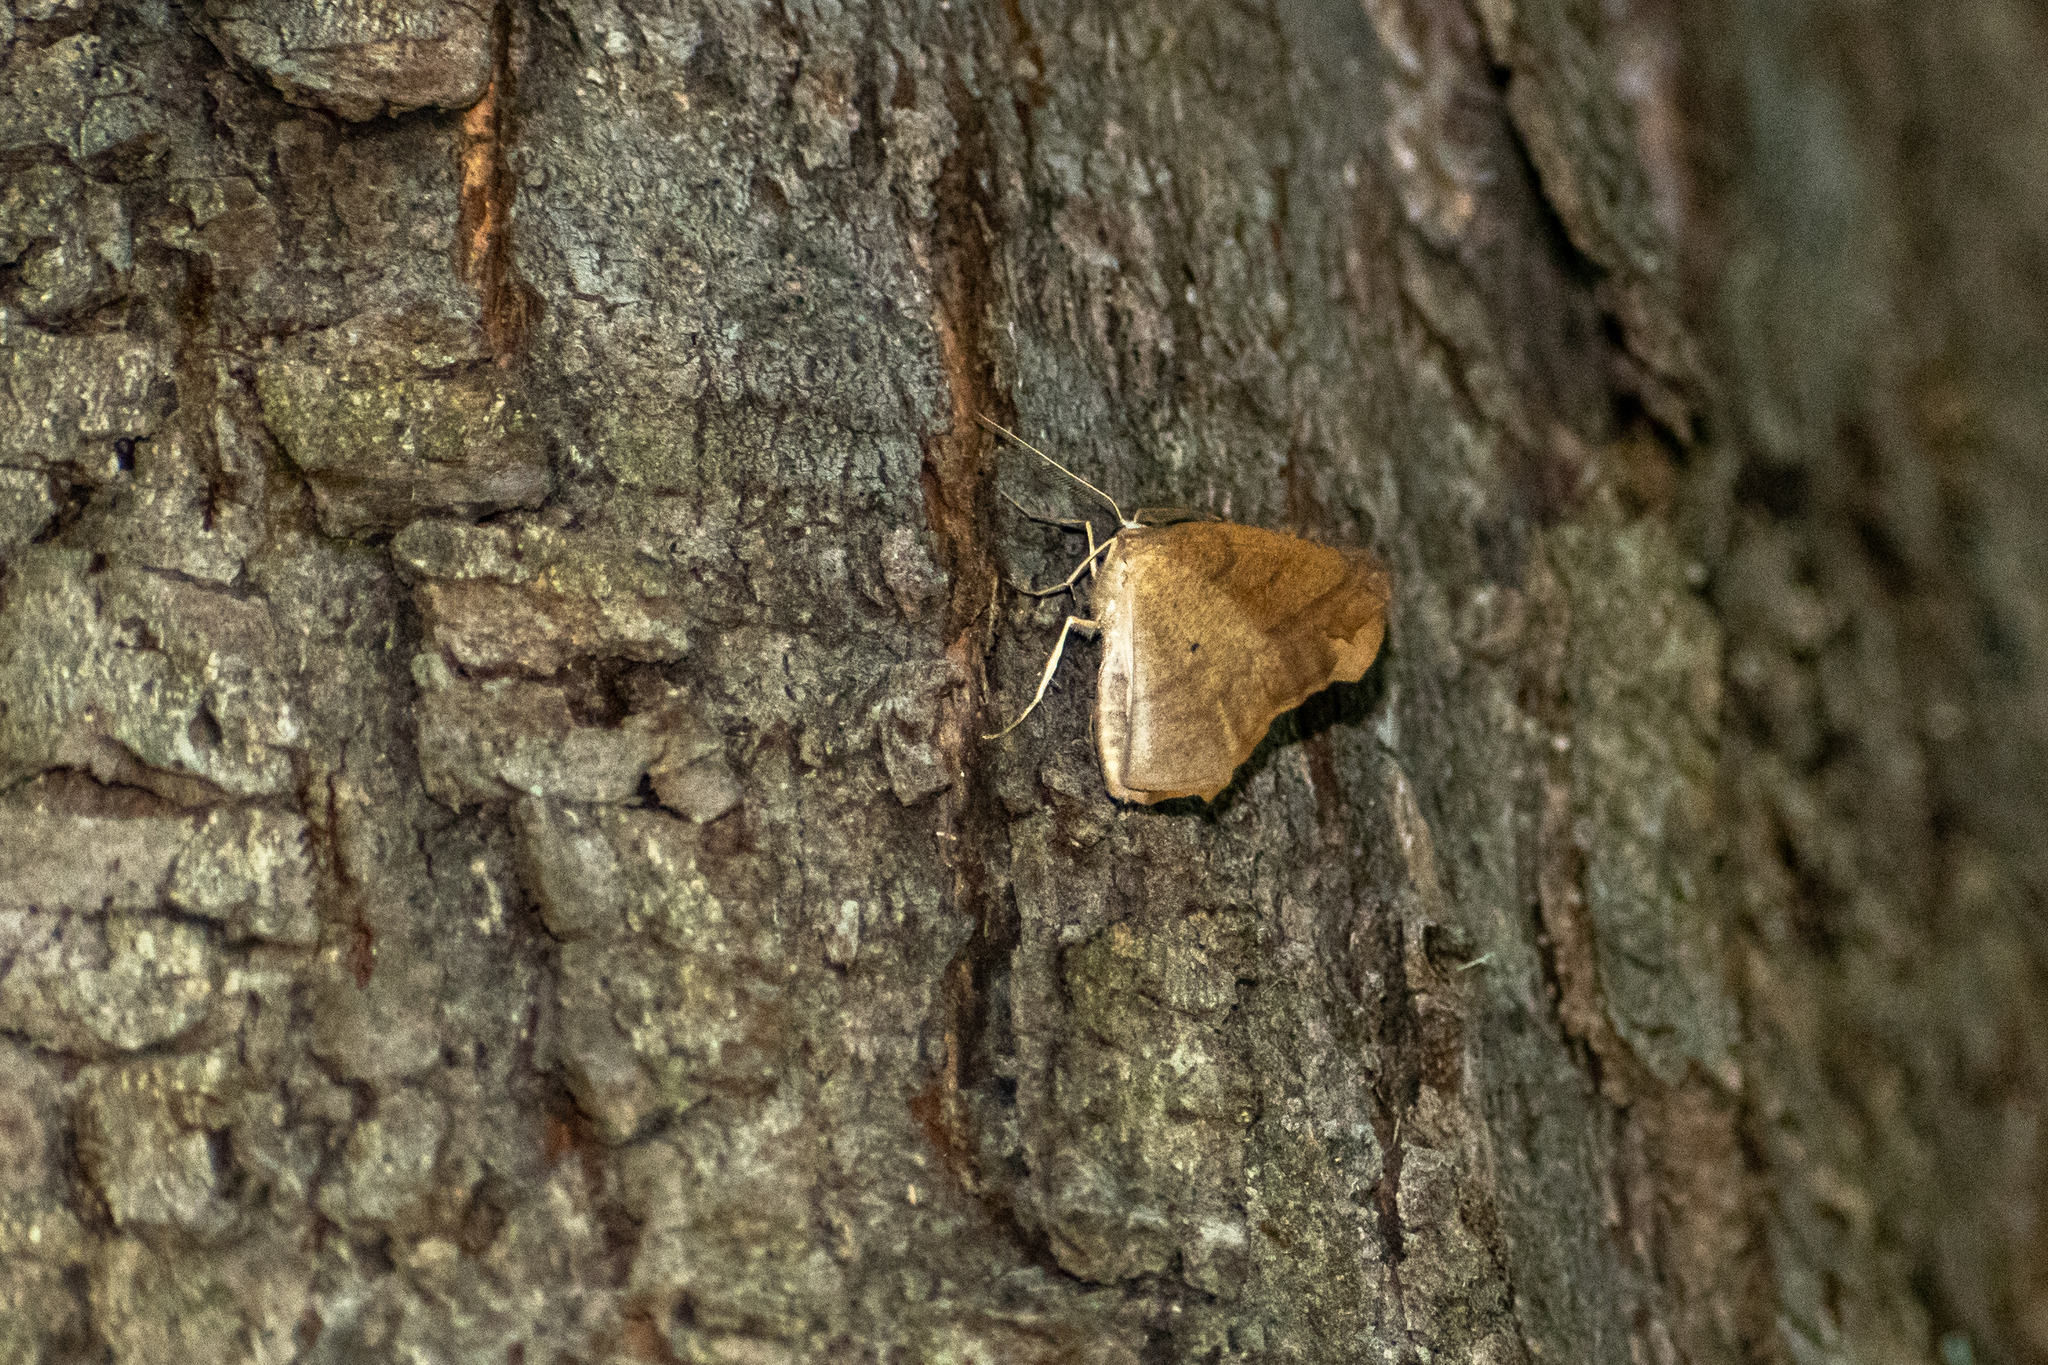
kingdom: Animalia
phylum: Arthropoda
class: Insecta
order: Lepidoptera
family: Geometridae
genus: Syncirsodes
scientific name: Syncirsodes primata
